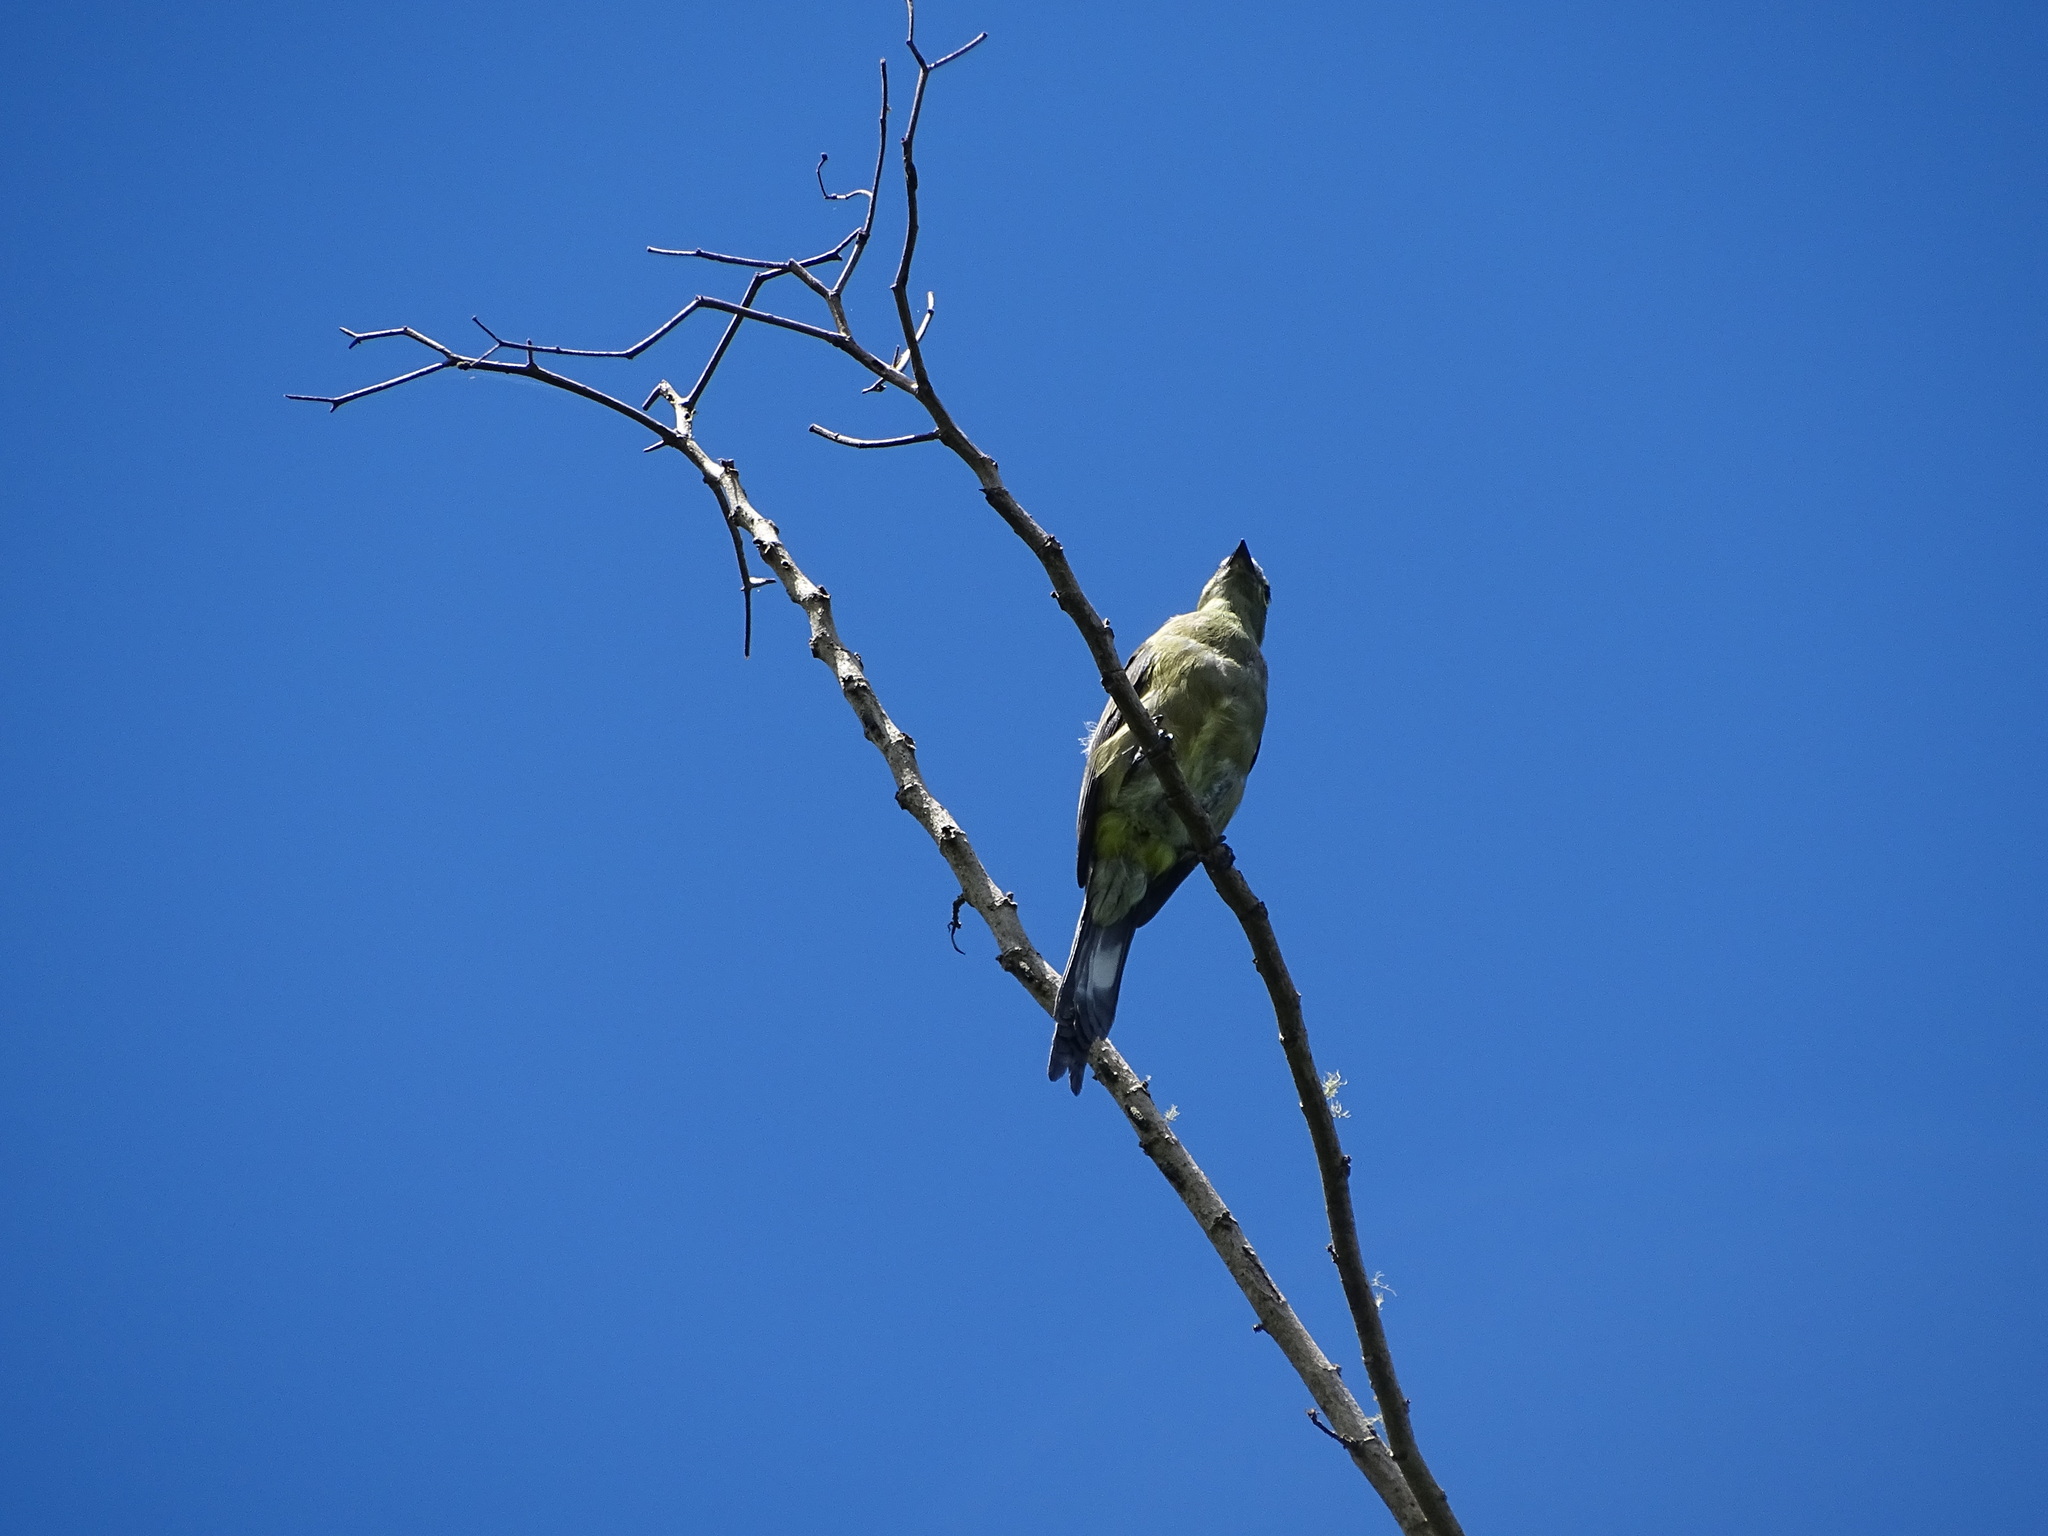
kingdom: Animalia
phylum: Chordata
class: Aves
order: Passeriformes
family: Ptilogonatidae
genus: Ptilogonys
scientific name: Ptilogonys caudatus
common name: Long-tailed silky-flycatcher
